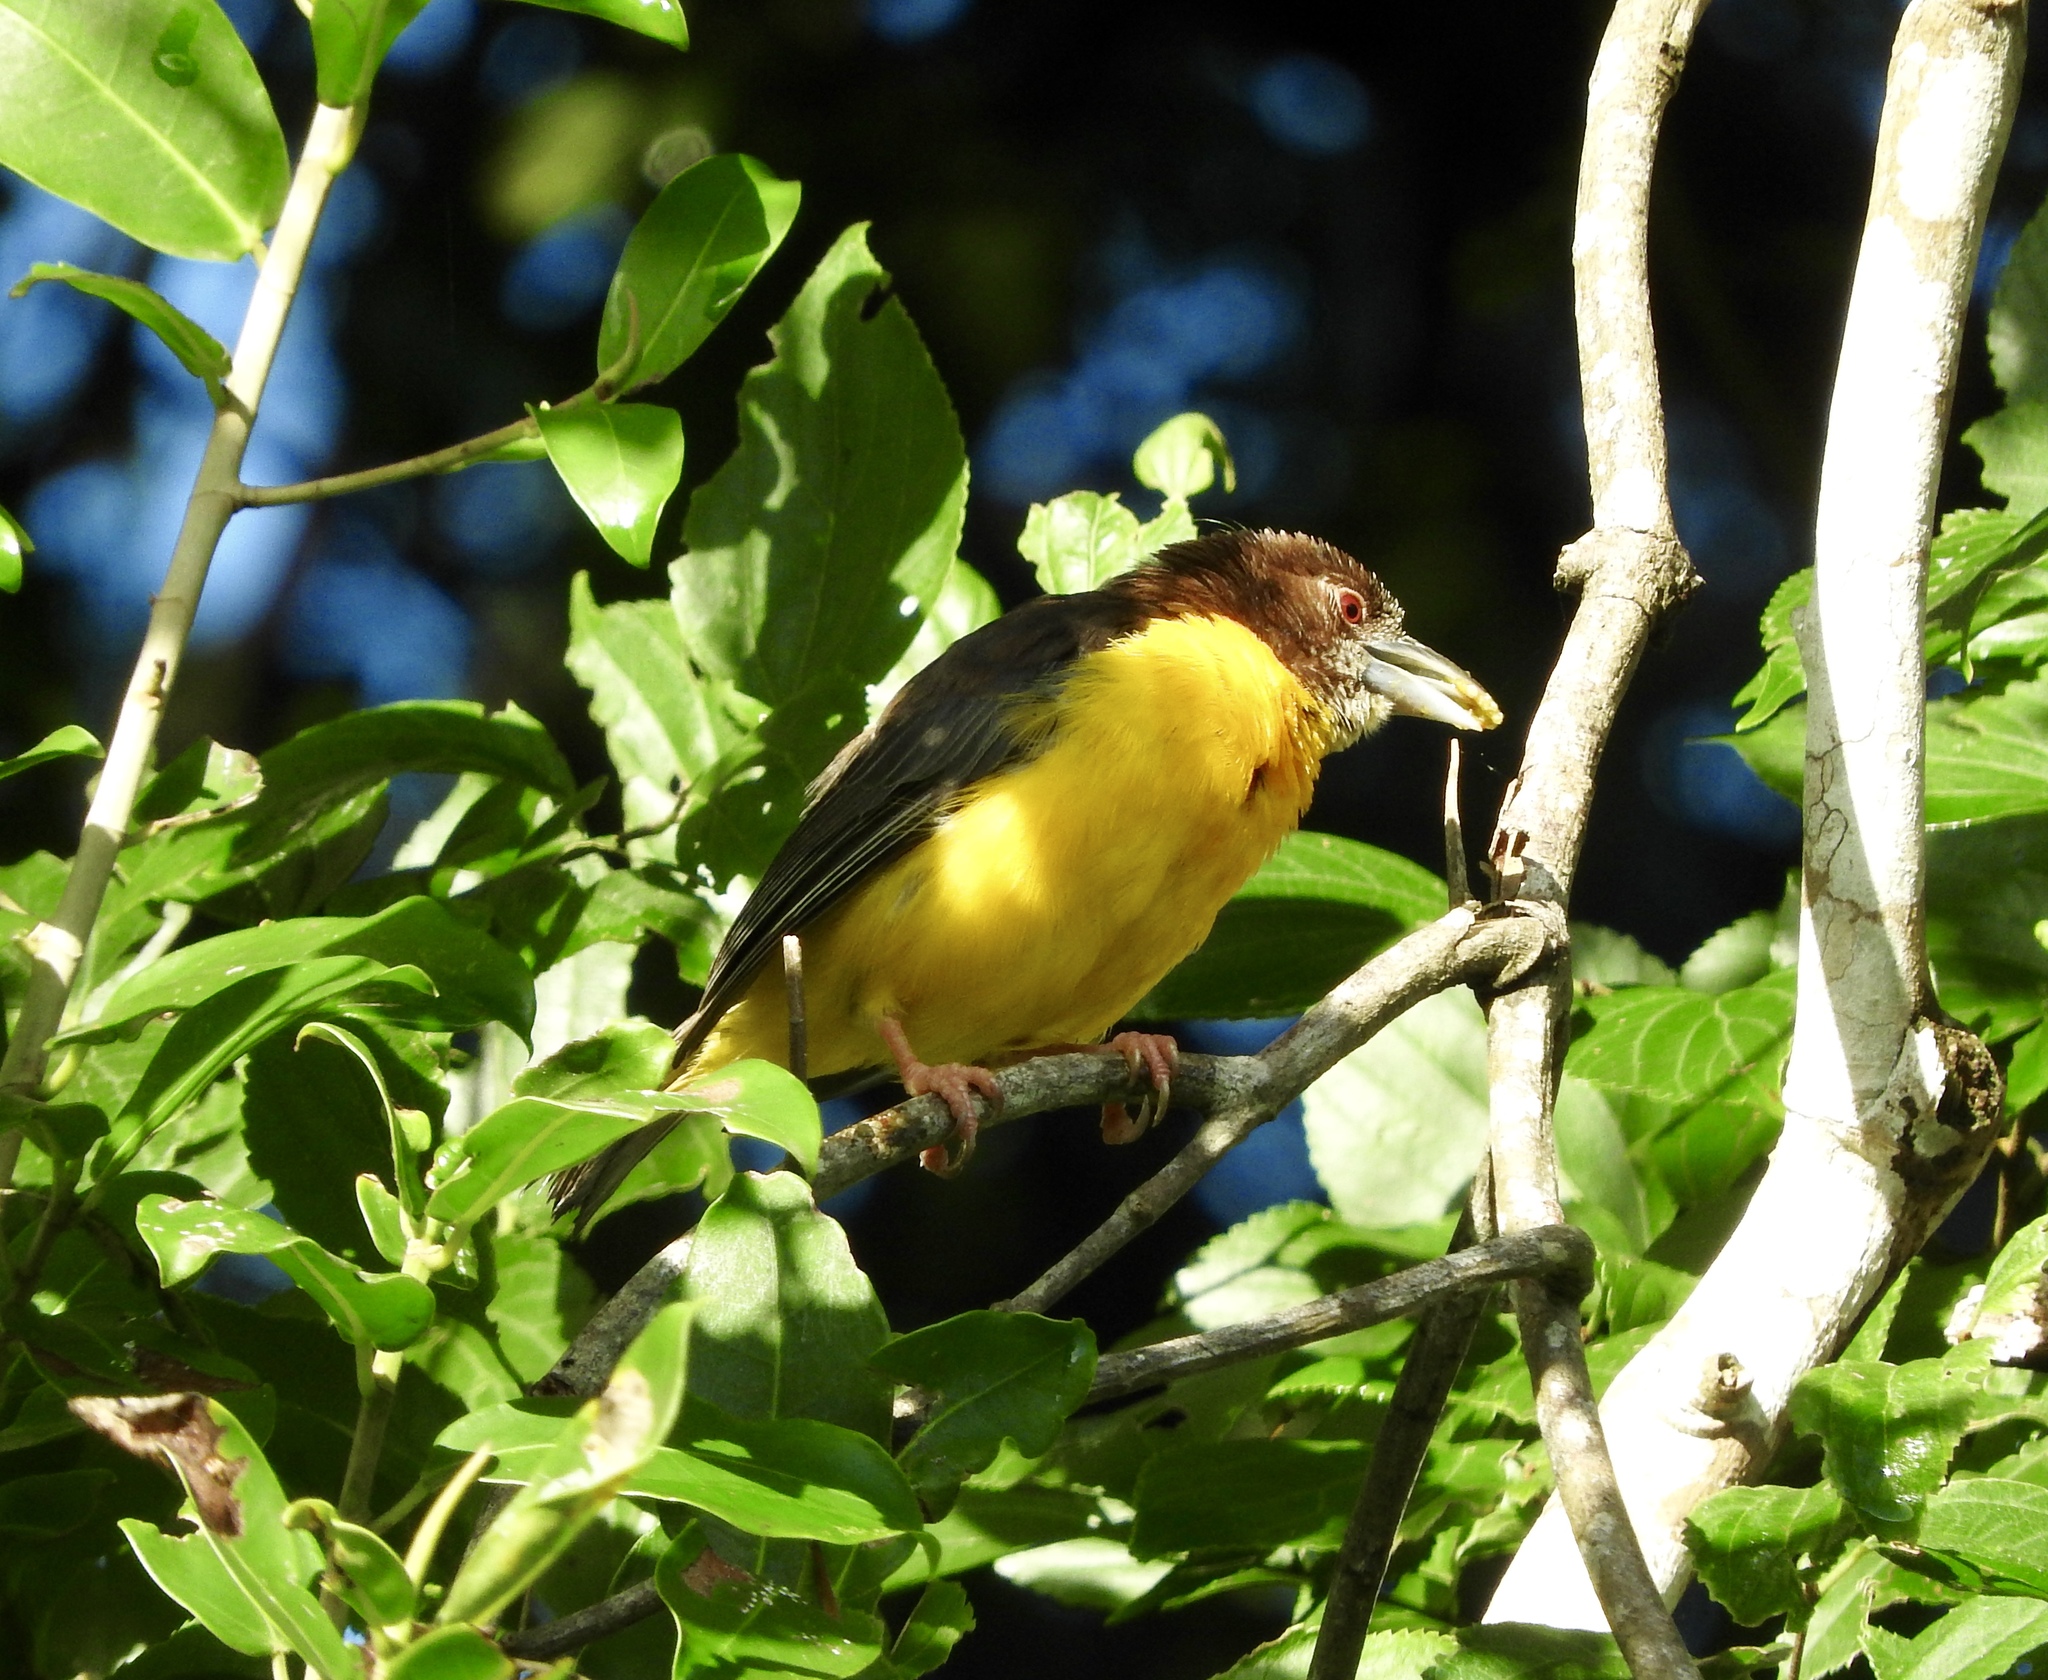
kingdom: Animalia
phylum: Chordata
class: Aves
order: Passeriformes
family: Ploceidae
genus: Ploceus
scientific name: Ploceus bicolor
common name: Dark-backed weaver
